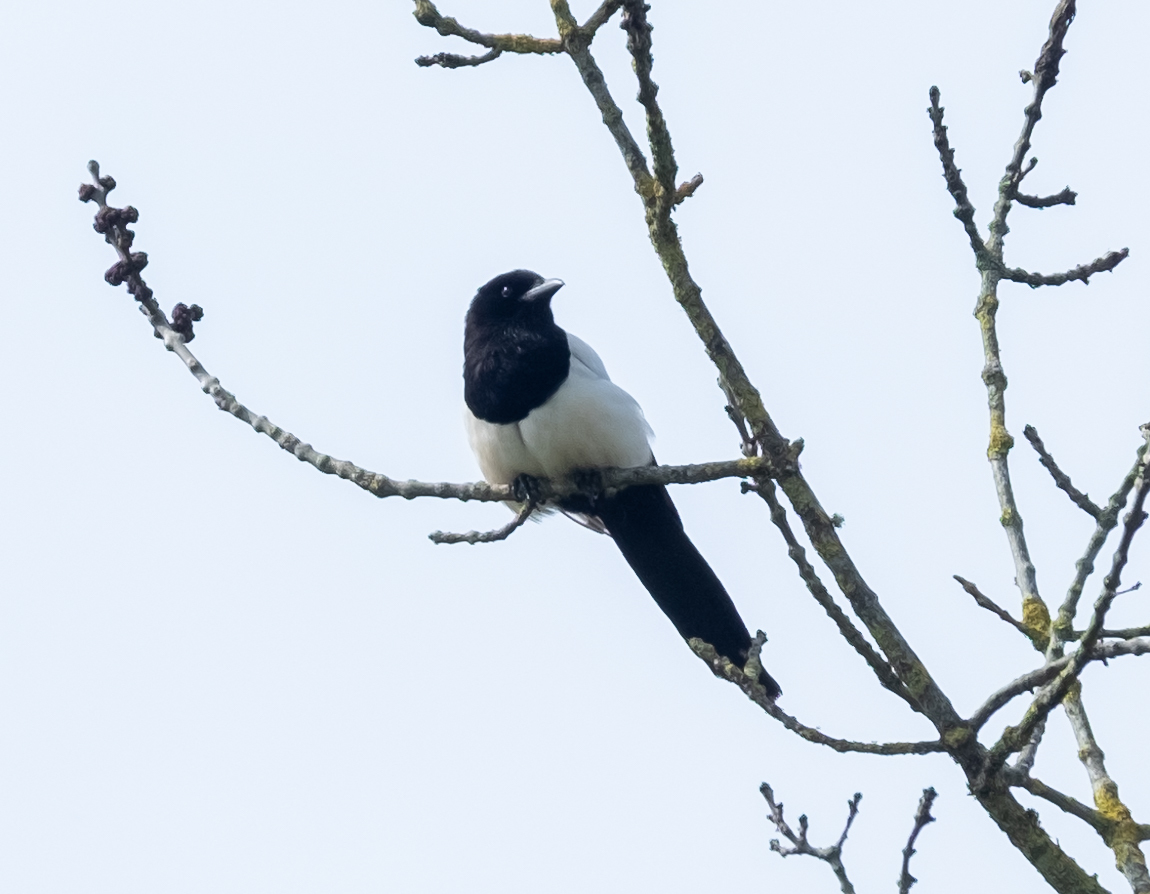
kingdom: Animalia
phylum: Chordata
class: Aves
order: Passeriformes
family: Corvidae
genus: Pica
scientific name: Pica pica
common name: Eurasian magpie
